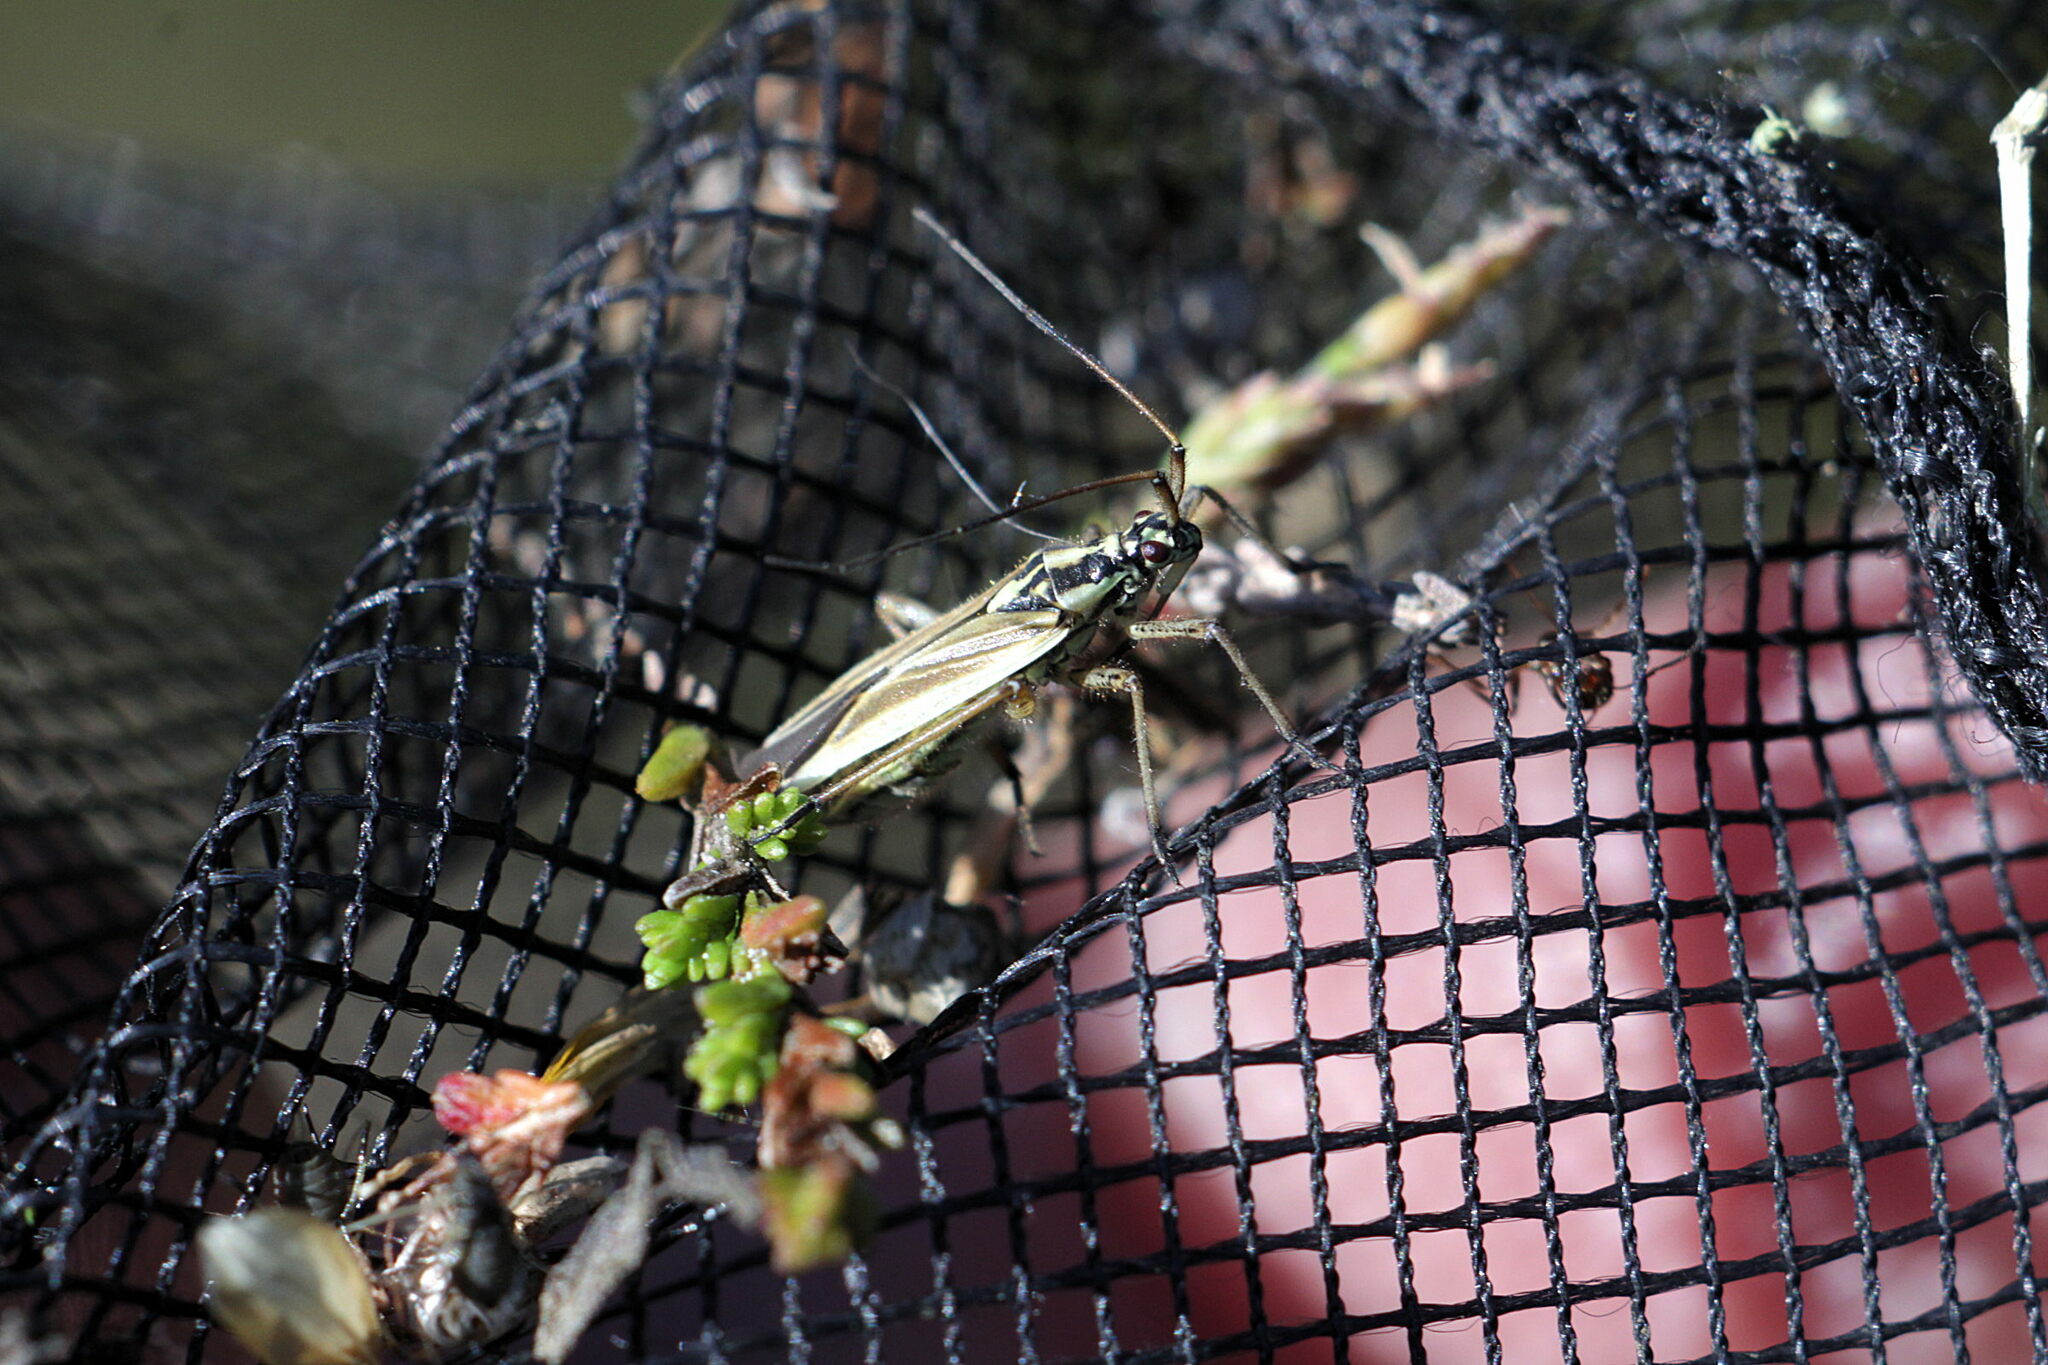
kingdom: Animalia
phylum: Arthropoda
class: Insecta
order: Hemiptera
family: Miridae
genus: Leptopterna
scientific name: Leptopterna dolabrata
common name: Meadow plant bug
